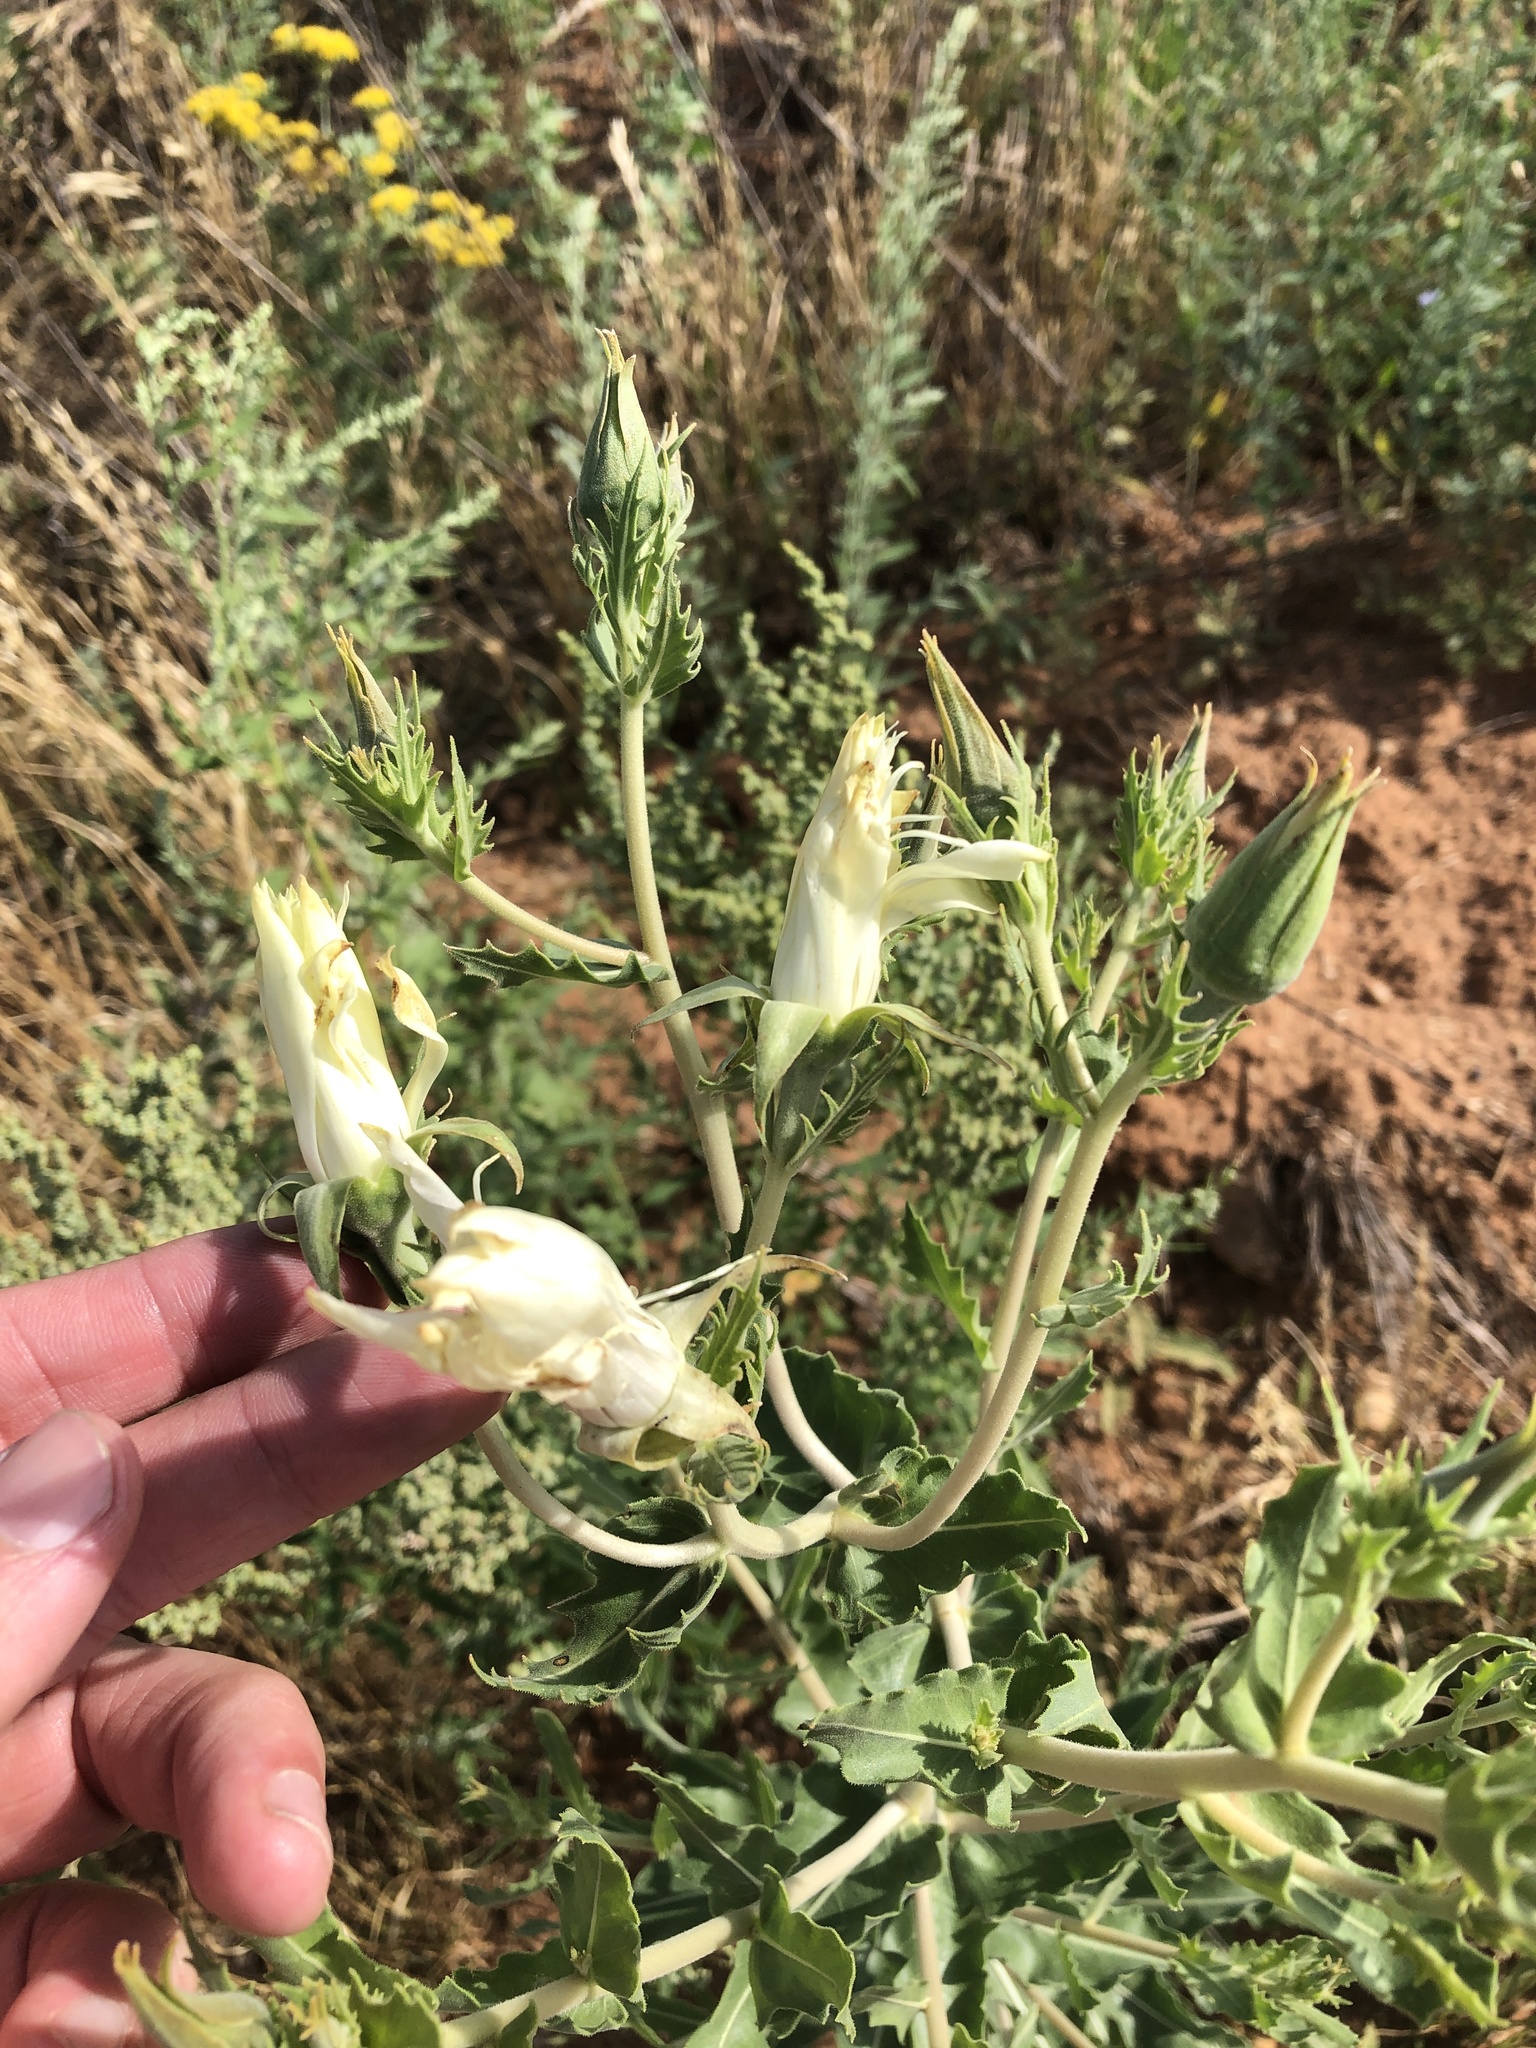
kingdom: Plantae
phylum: Tracheophyta
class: Magnoliopsida
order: Cornales
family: Loasaceae
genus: Mentzelia
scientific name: Mentzelia nuda
